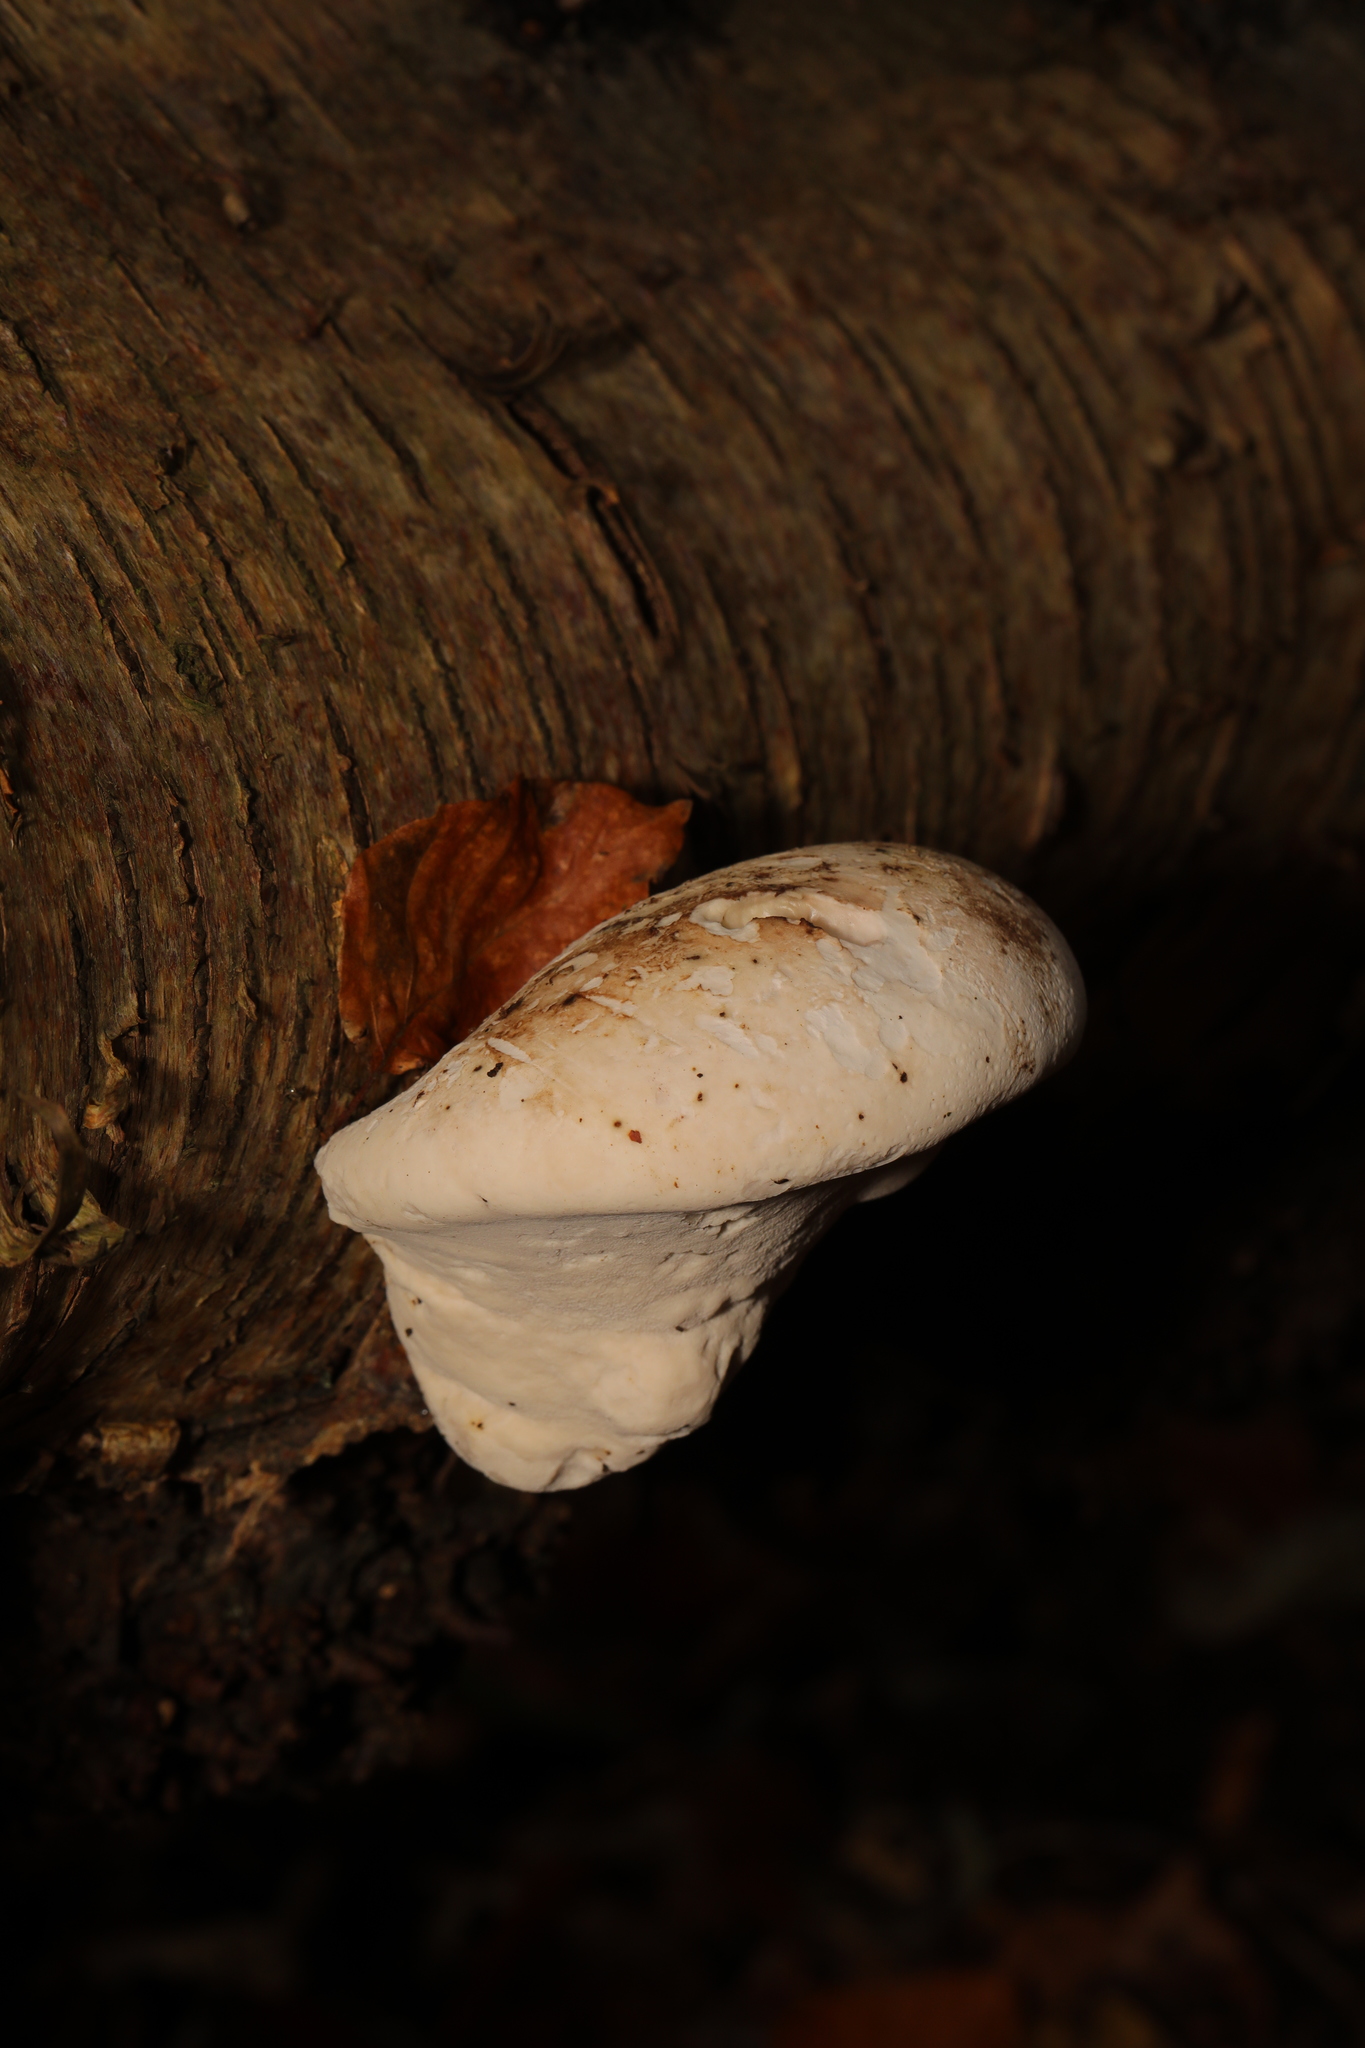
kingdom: Fungi
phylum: Basidiomycota
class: Agaricomycetes
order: Polyporales
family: Fomitopsidaceae
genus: Fomitopsis
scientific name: Fomitopsis betulina
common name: Birch polypore
